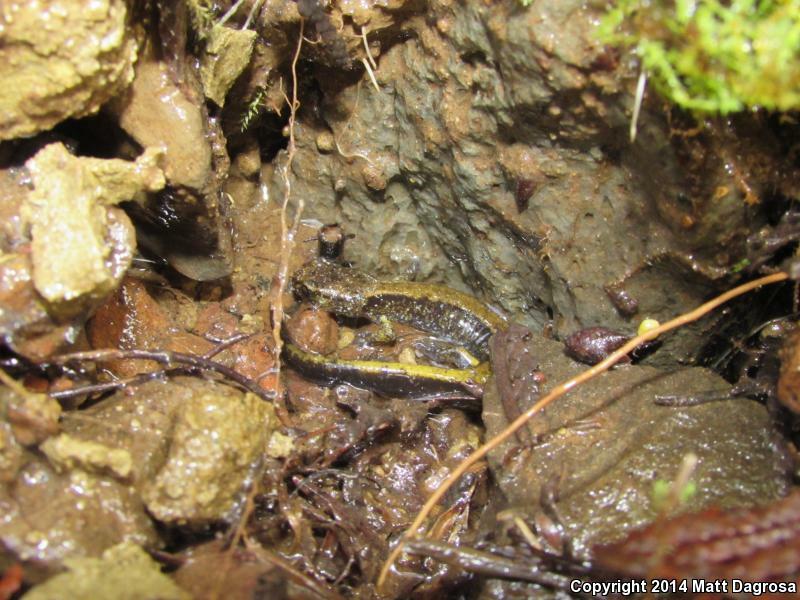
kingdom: Animalia
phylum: Chordata
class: Amphibia
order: Caudata
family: Plethodontidae
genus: Plethodon
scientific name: Plethodon dunni
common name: Dunn's salamander
